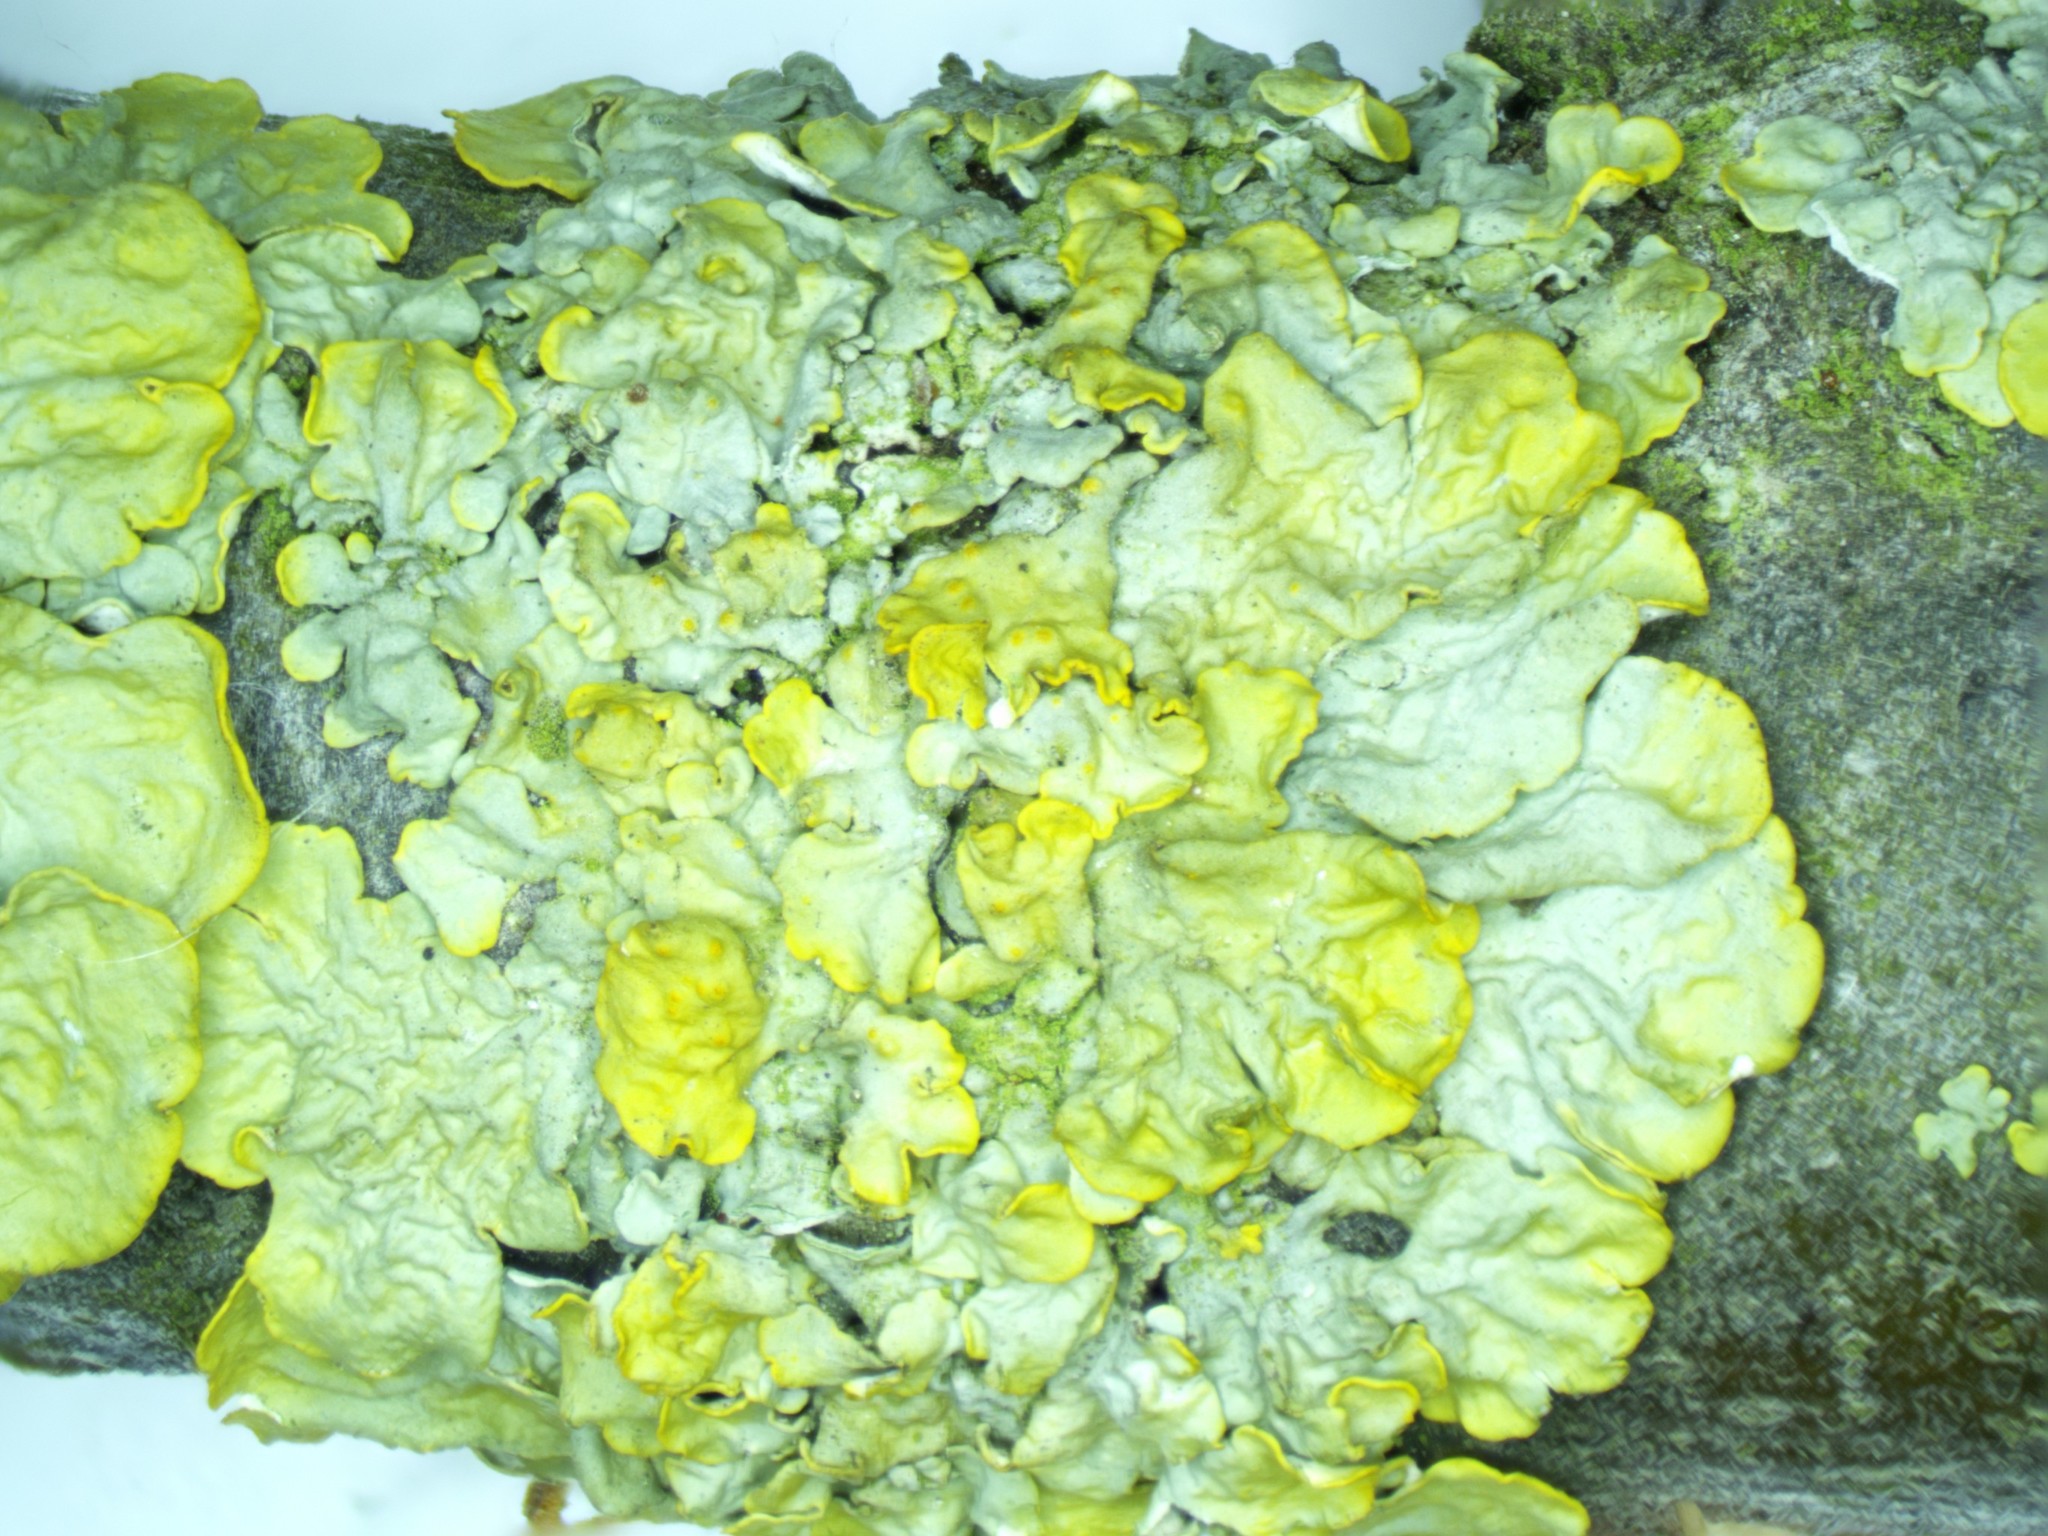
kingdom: Fungi
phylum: Ascomycota
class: Lecanoromycetes
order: Teloschistales
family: Teloschistaceae
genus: Xanthoria
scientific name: Xanthoria parietina
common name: Common orange lichen
